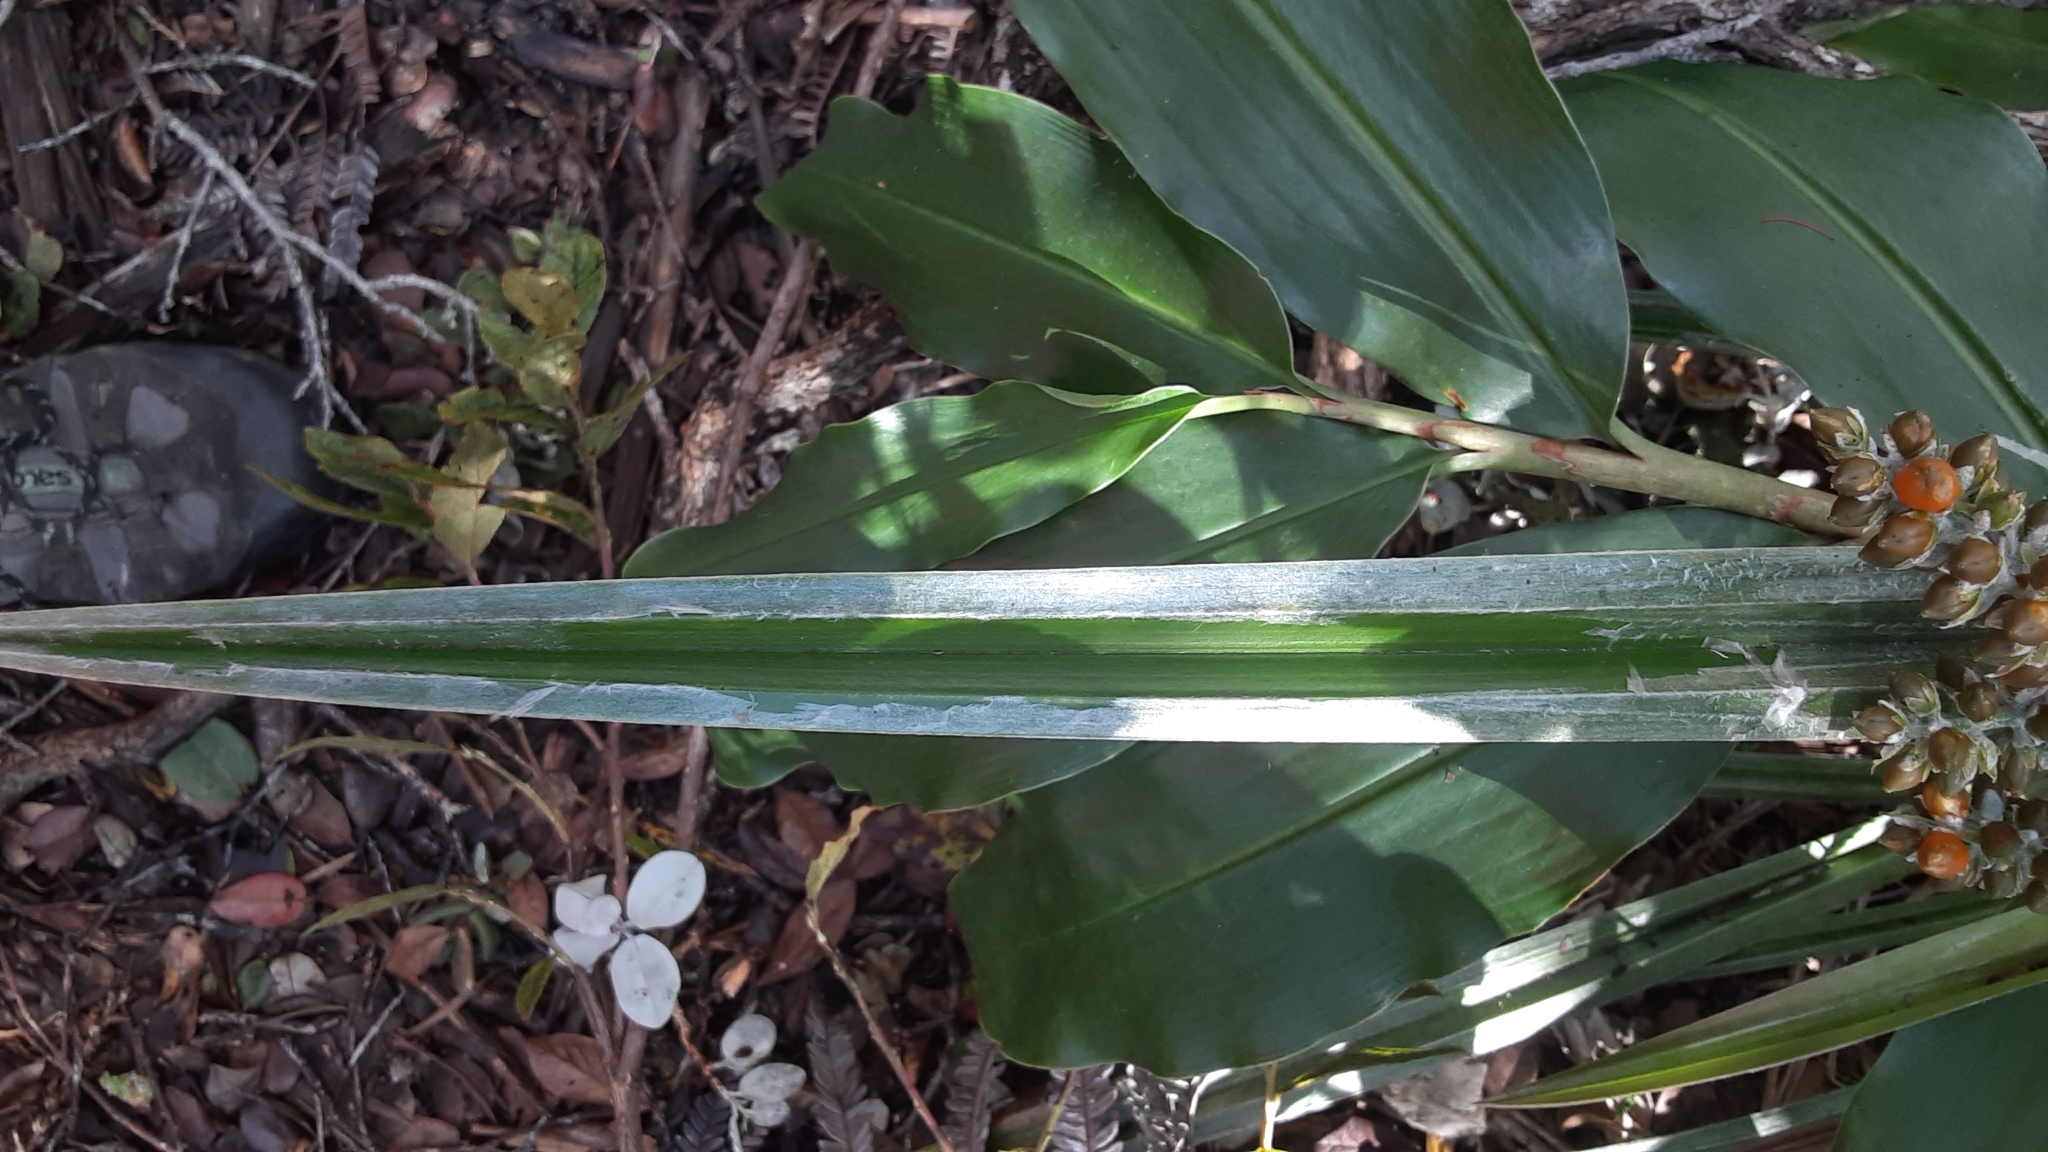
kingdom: Plantae
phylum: Tracheophyta
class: Liliopsida
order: Asparagales
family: Asteliaceae
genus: Astelia
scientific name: Astelia menziesiana
